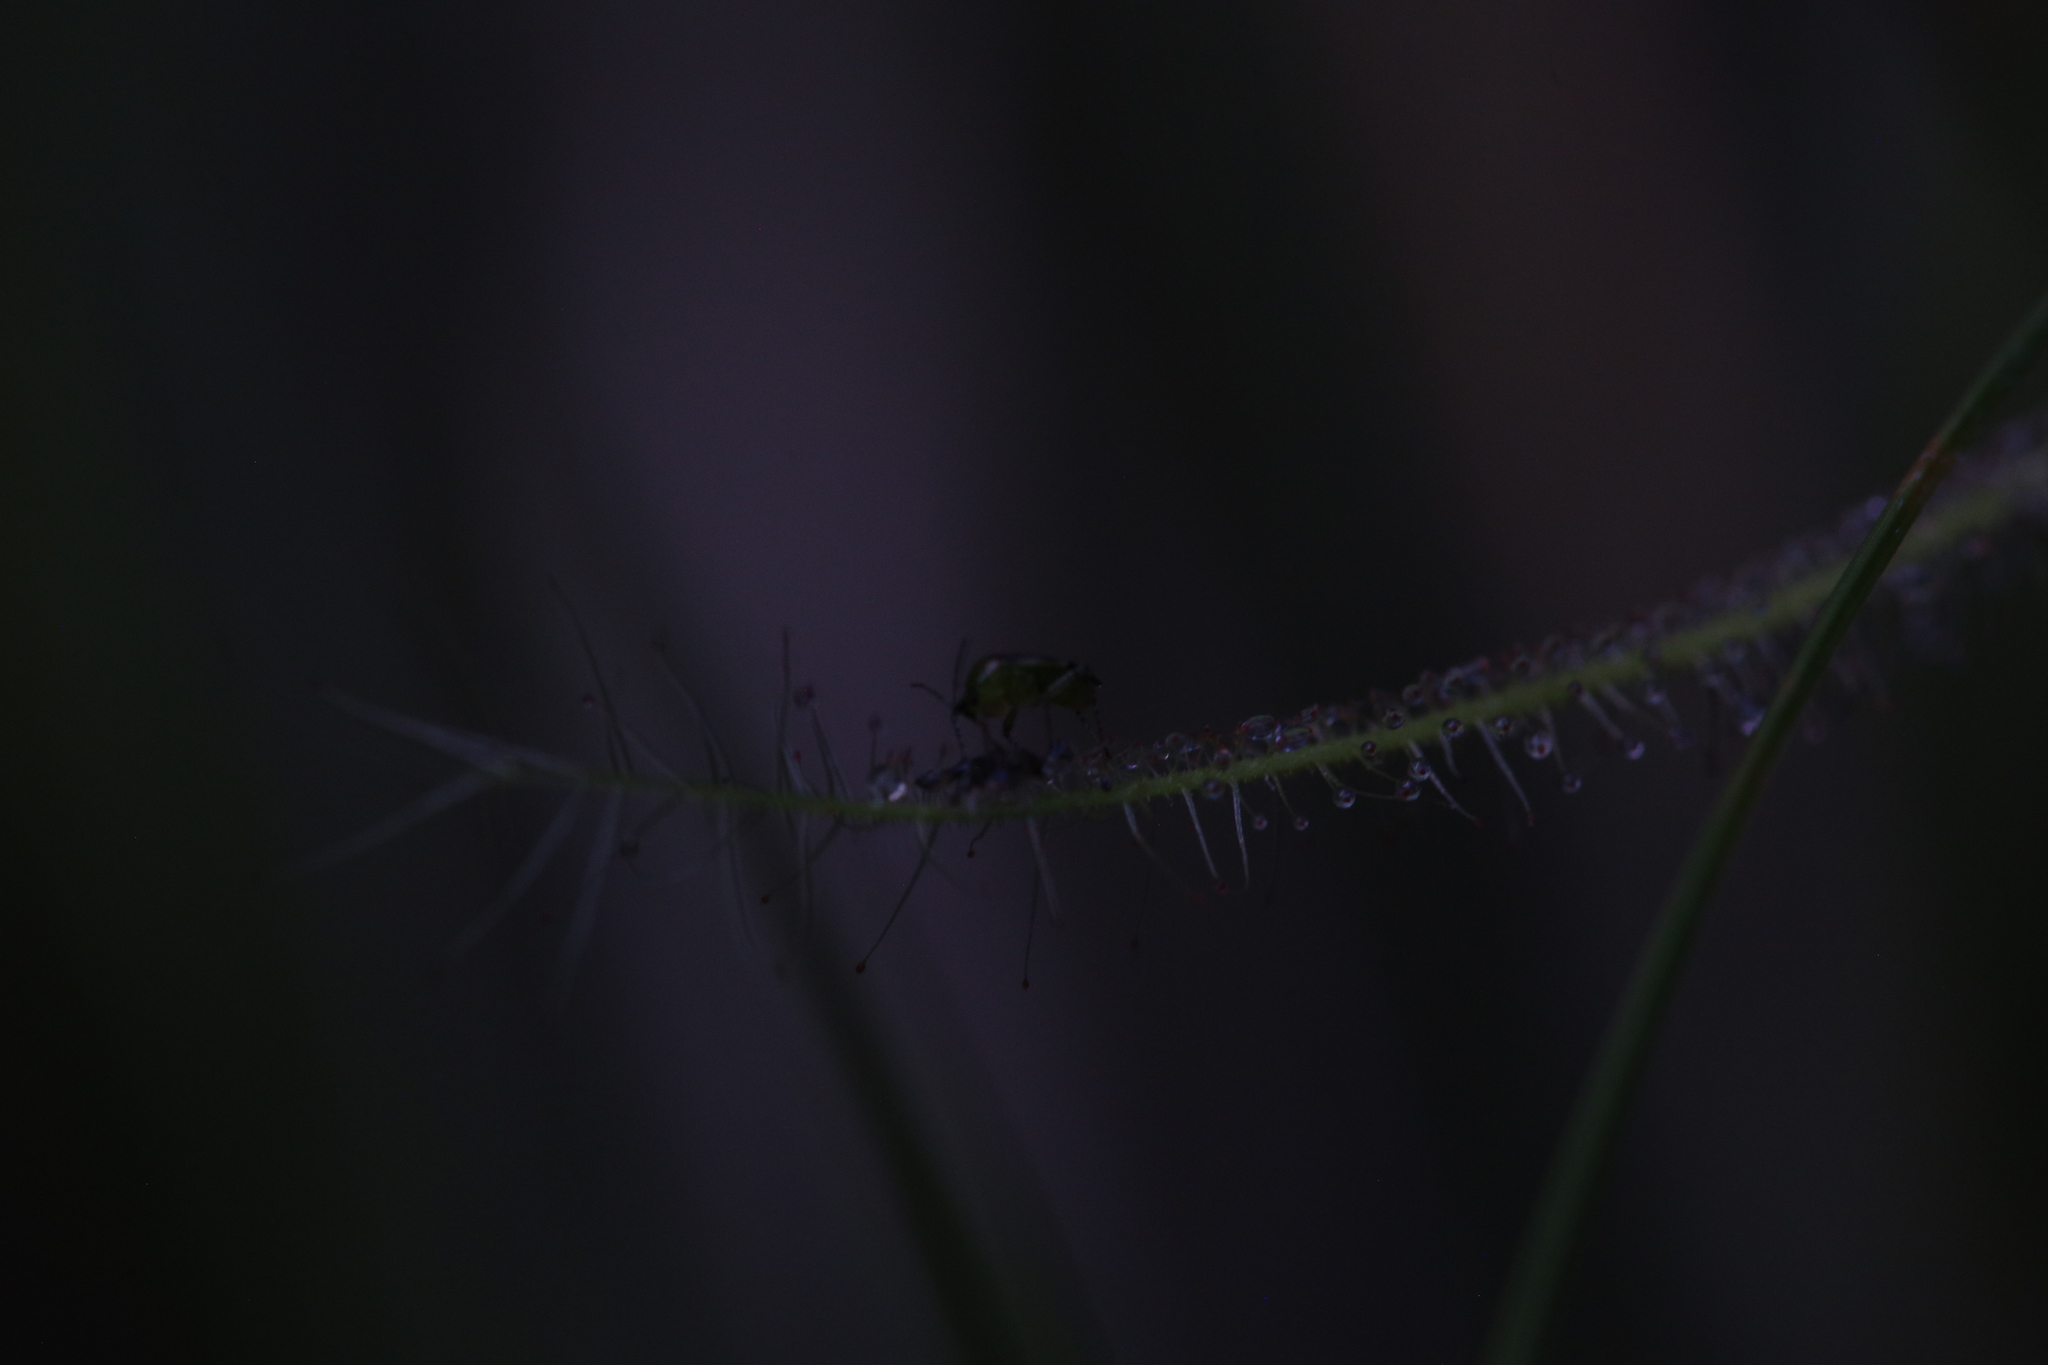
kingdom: Plantae
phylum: Tracheophyta
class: Magnoliopsida
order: Caryophyllales
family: Droseraceae
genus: Drosera
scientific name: Drosera indica
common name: Indian sundew
